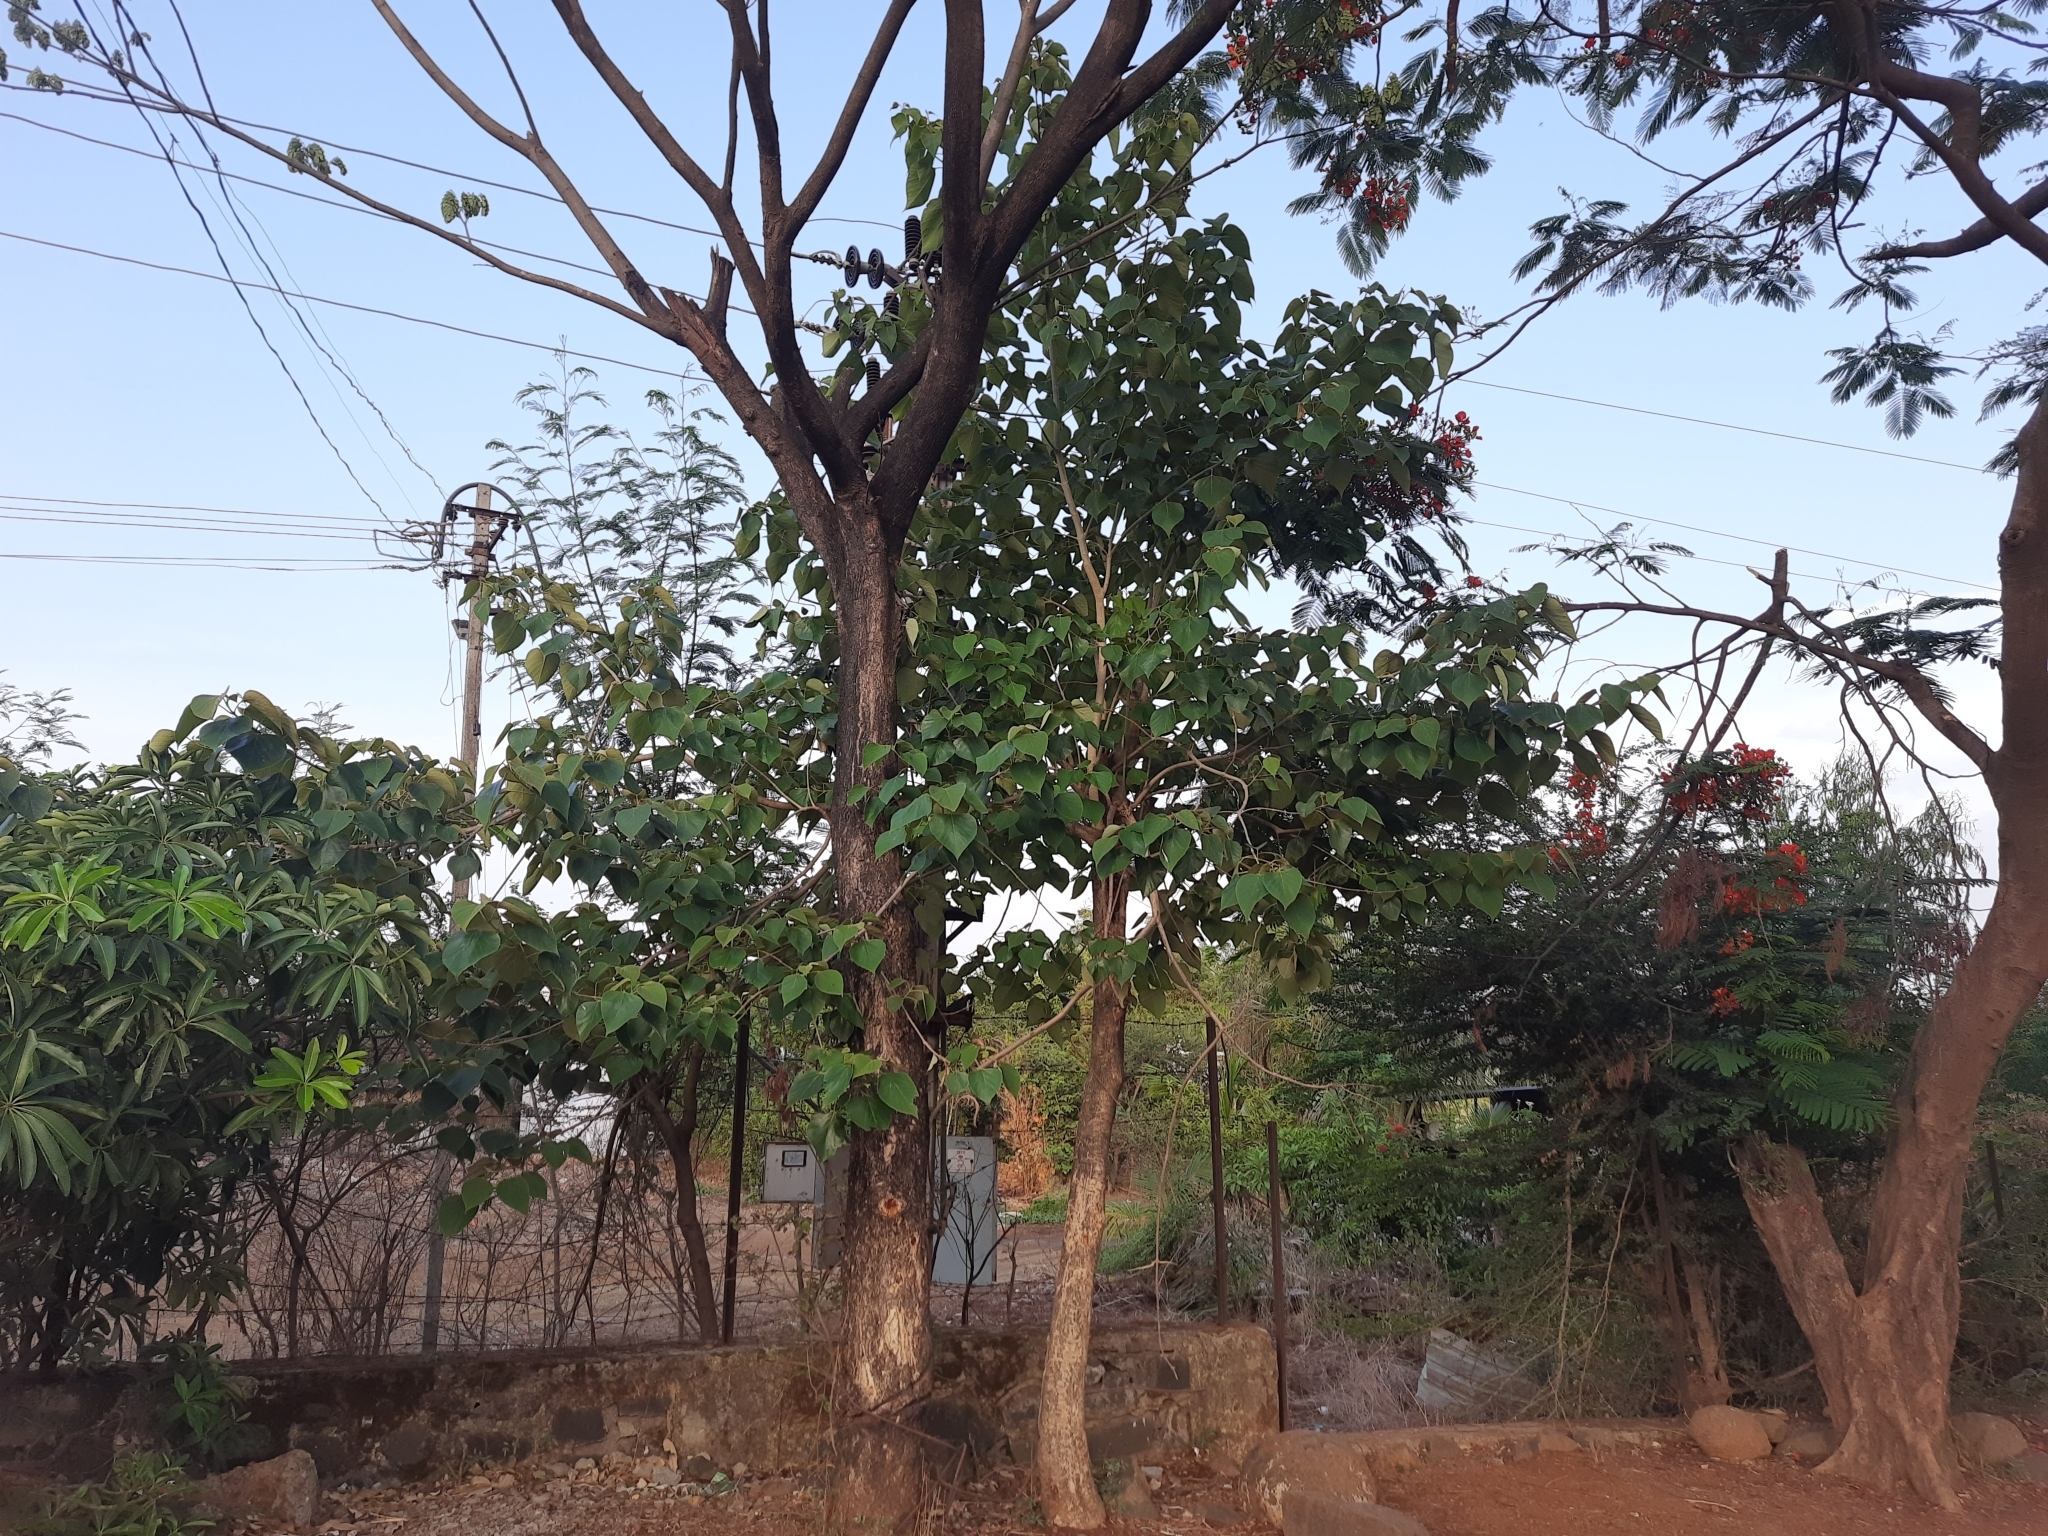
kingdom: Plantae
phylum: Tracheophyta
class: Magnoliopsida
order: Lamiales
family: Lamiaceae
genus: Gmelina
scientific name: Gmelina arborea
